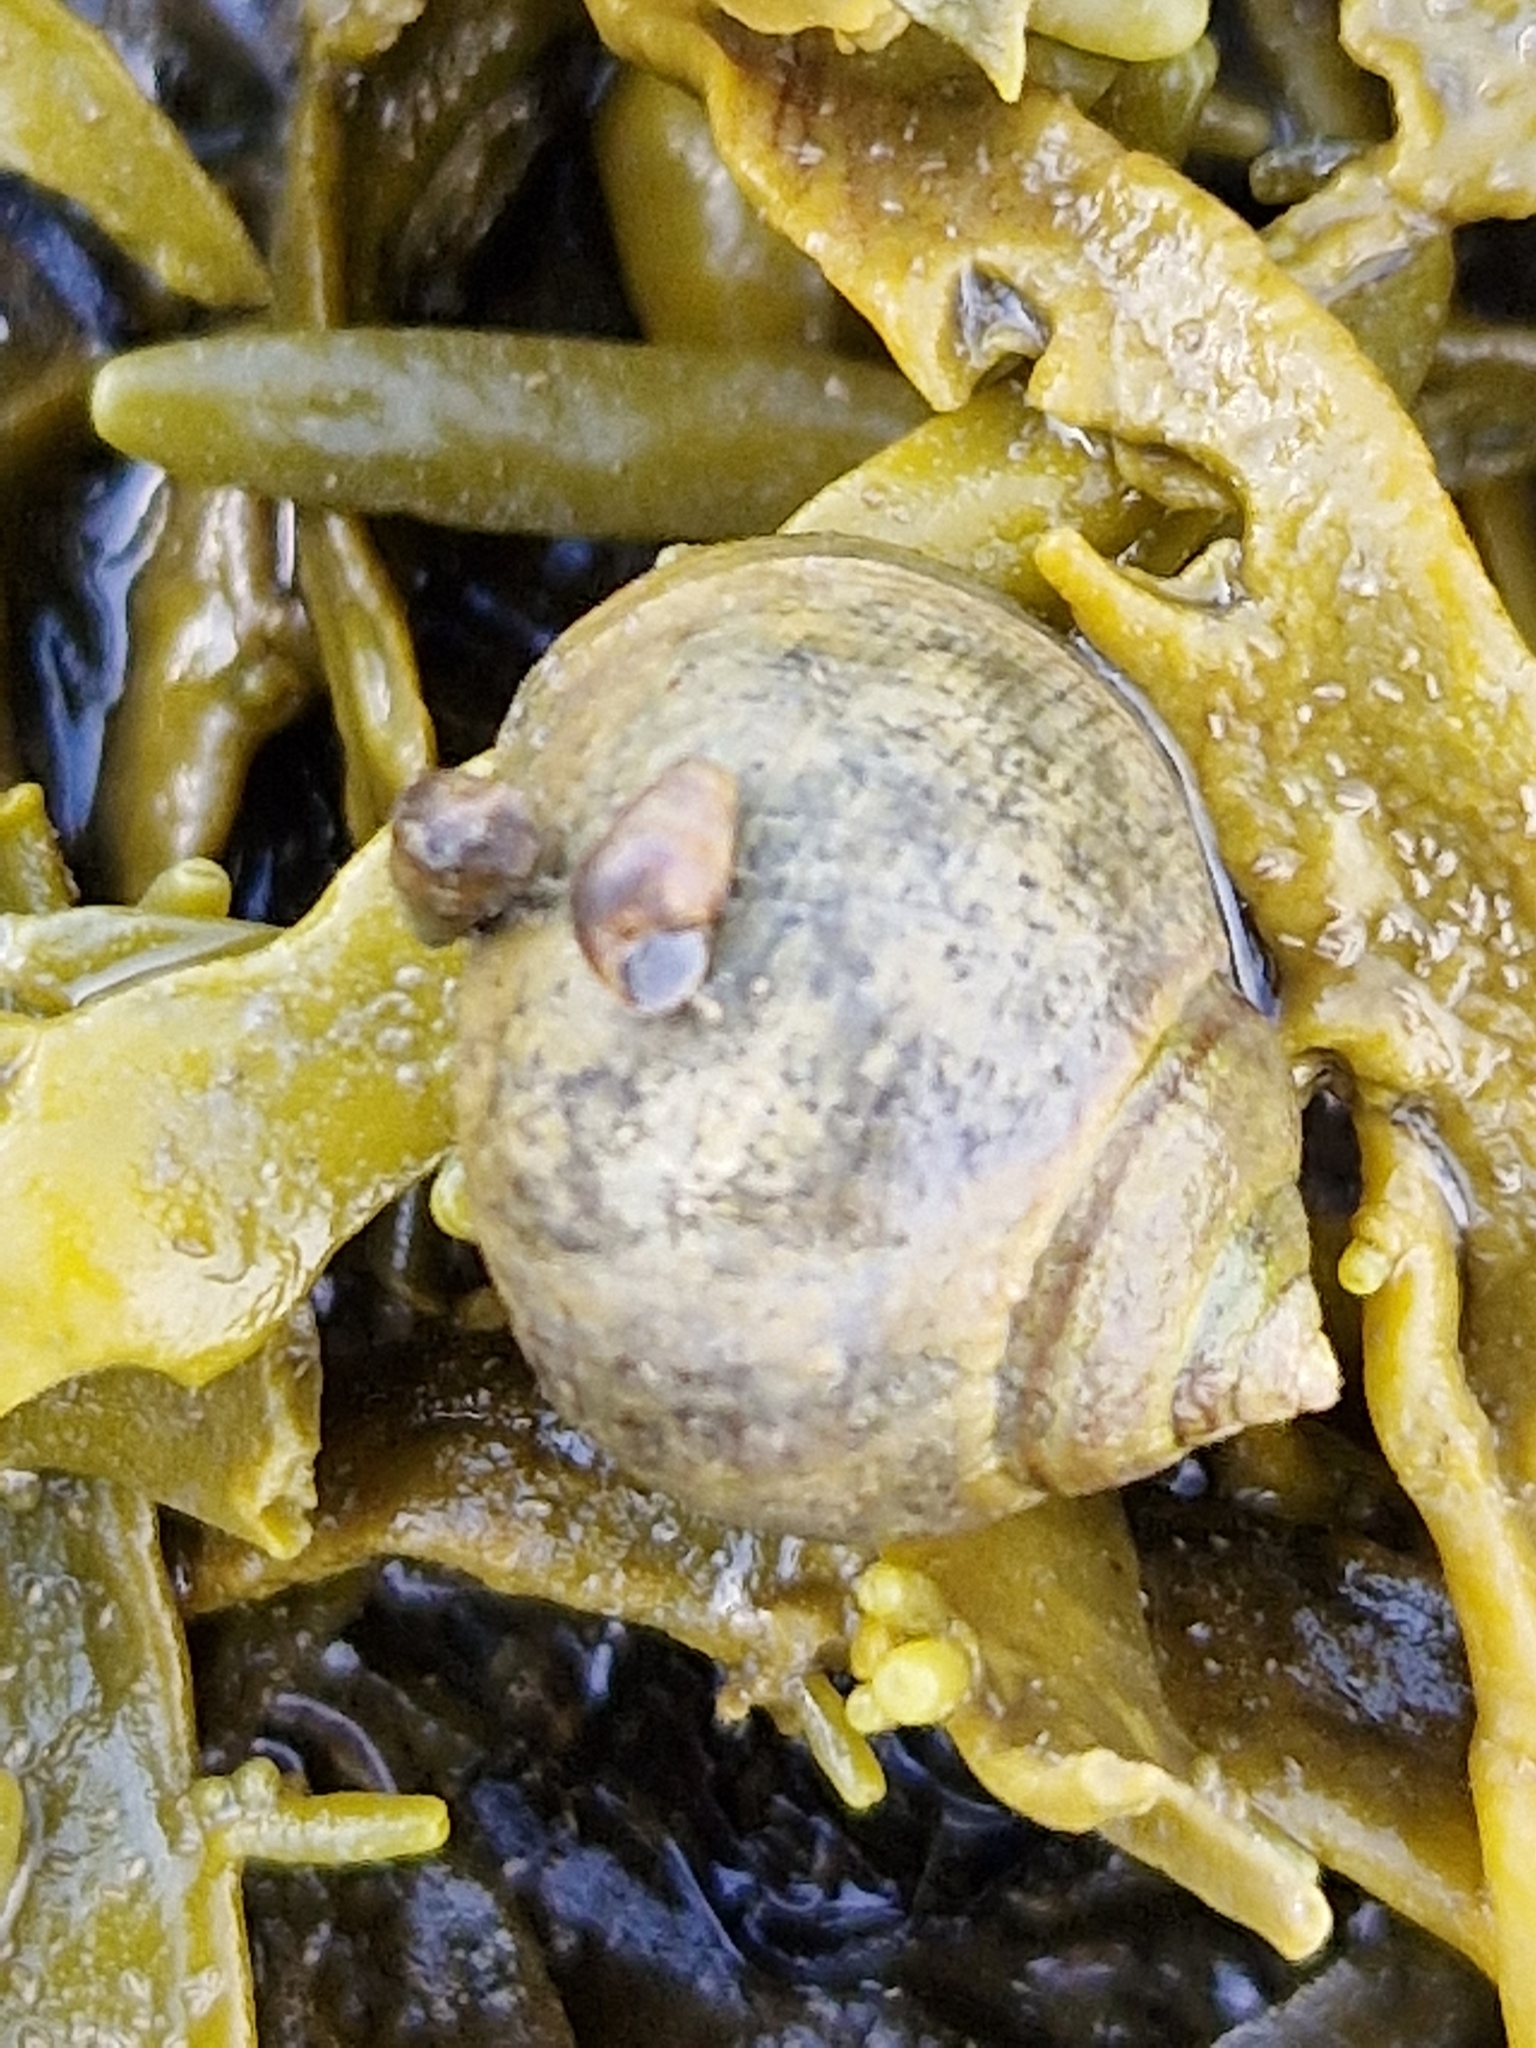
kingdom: Animalia
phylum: Mollusca
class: Gastropoda
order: Littorinimorpha
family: Littorinidae
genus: Littorina
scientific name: Littorina littorea
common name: Common periwinkle
